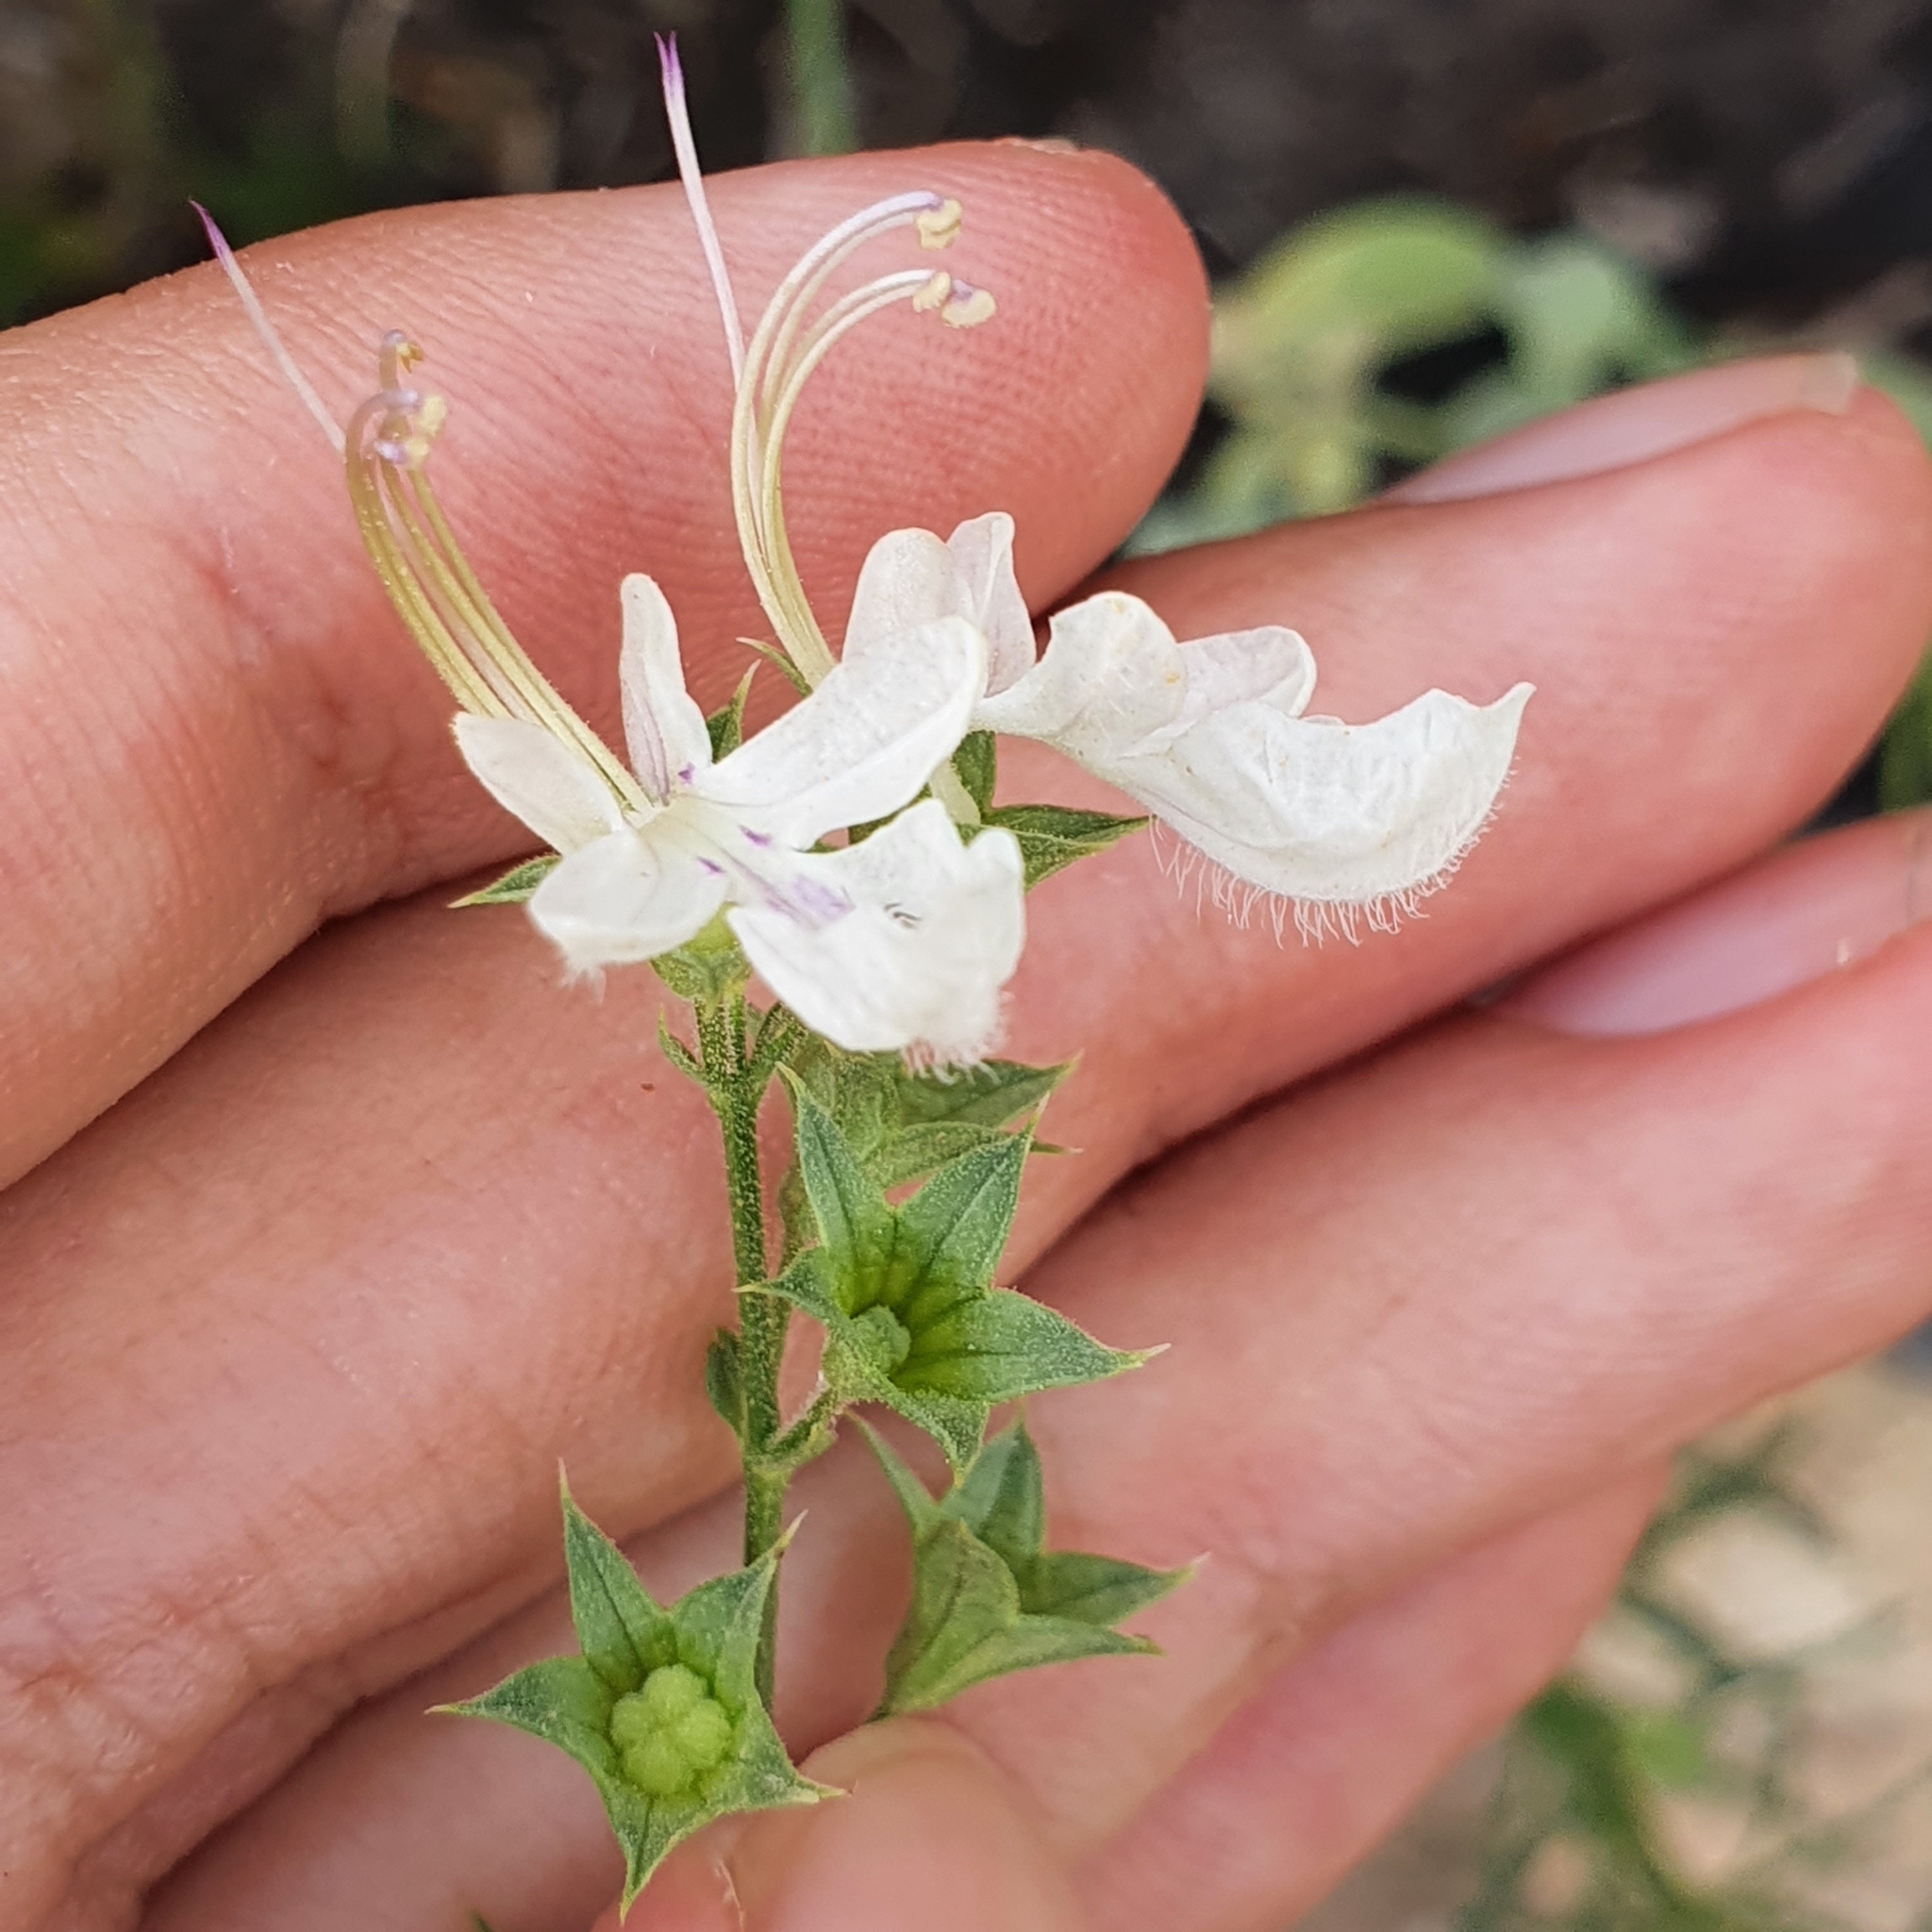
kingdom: Plantae
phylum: Tracheophyta
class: Magnoliopsida
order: Lamiales
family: Lamiaceae
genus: Teucrium
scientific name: Teucrium pseudochamaepitys
